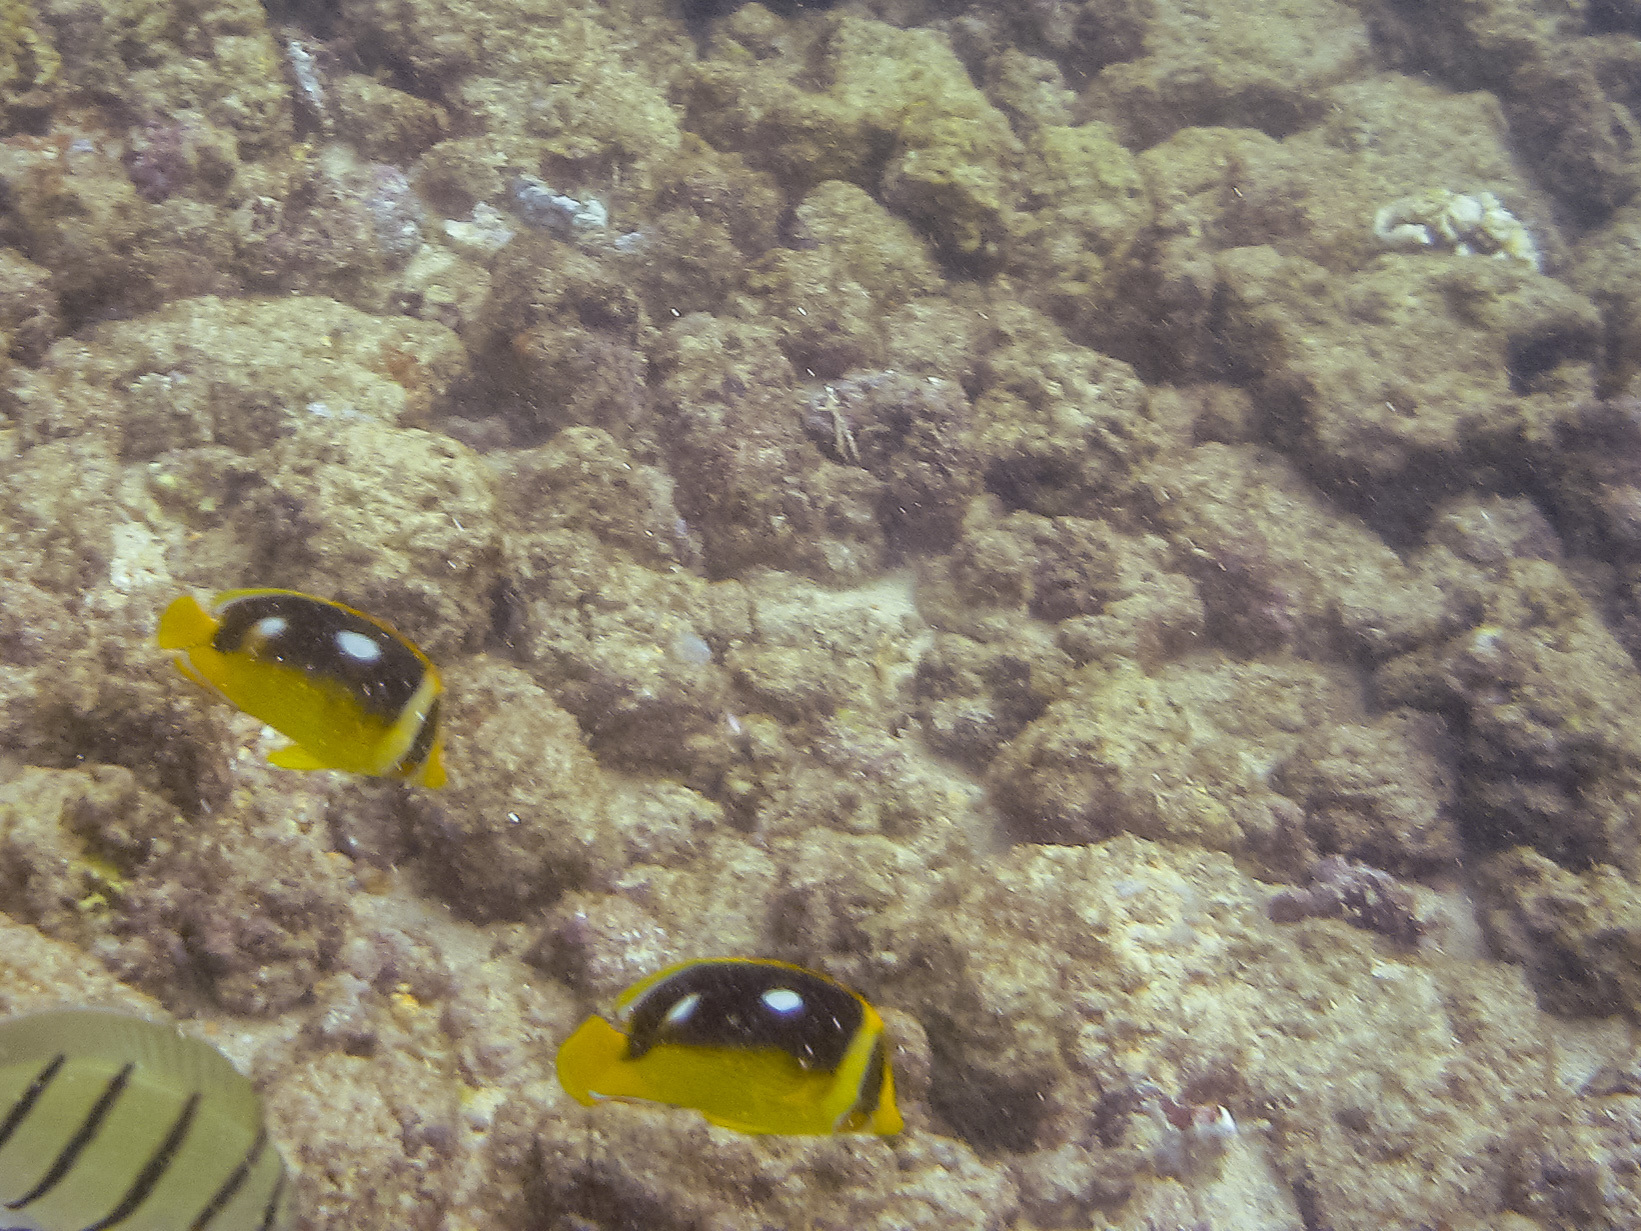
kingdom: Animalia
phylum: Chordata
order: Perciformes
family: Chaetodontidae
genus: Chaetodon
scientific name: Chaetodon quadrimaculatus
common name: Fourspot butterflyfish
